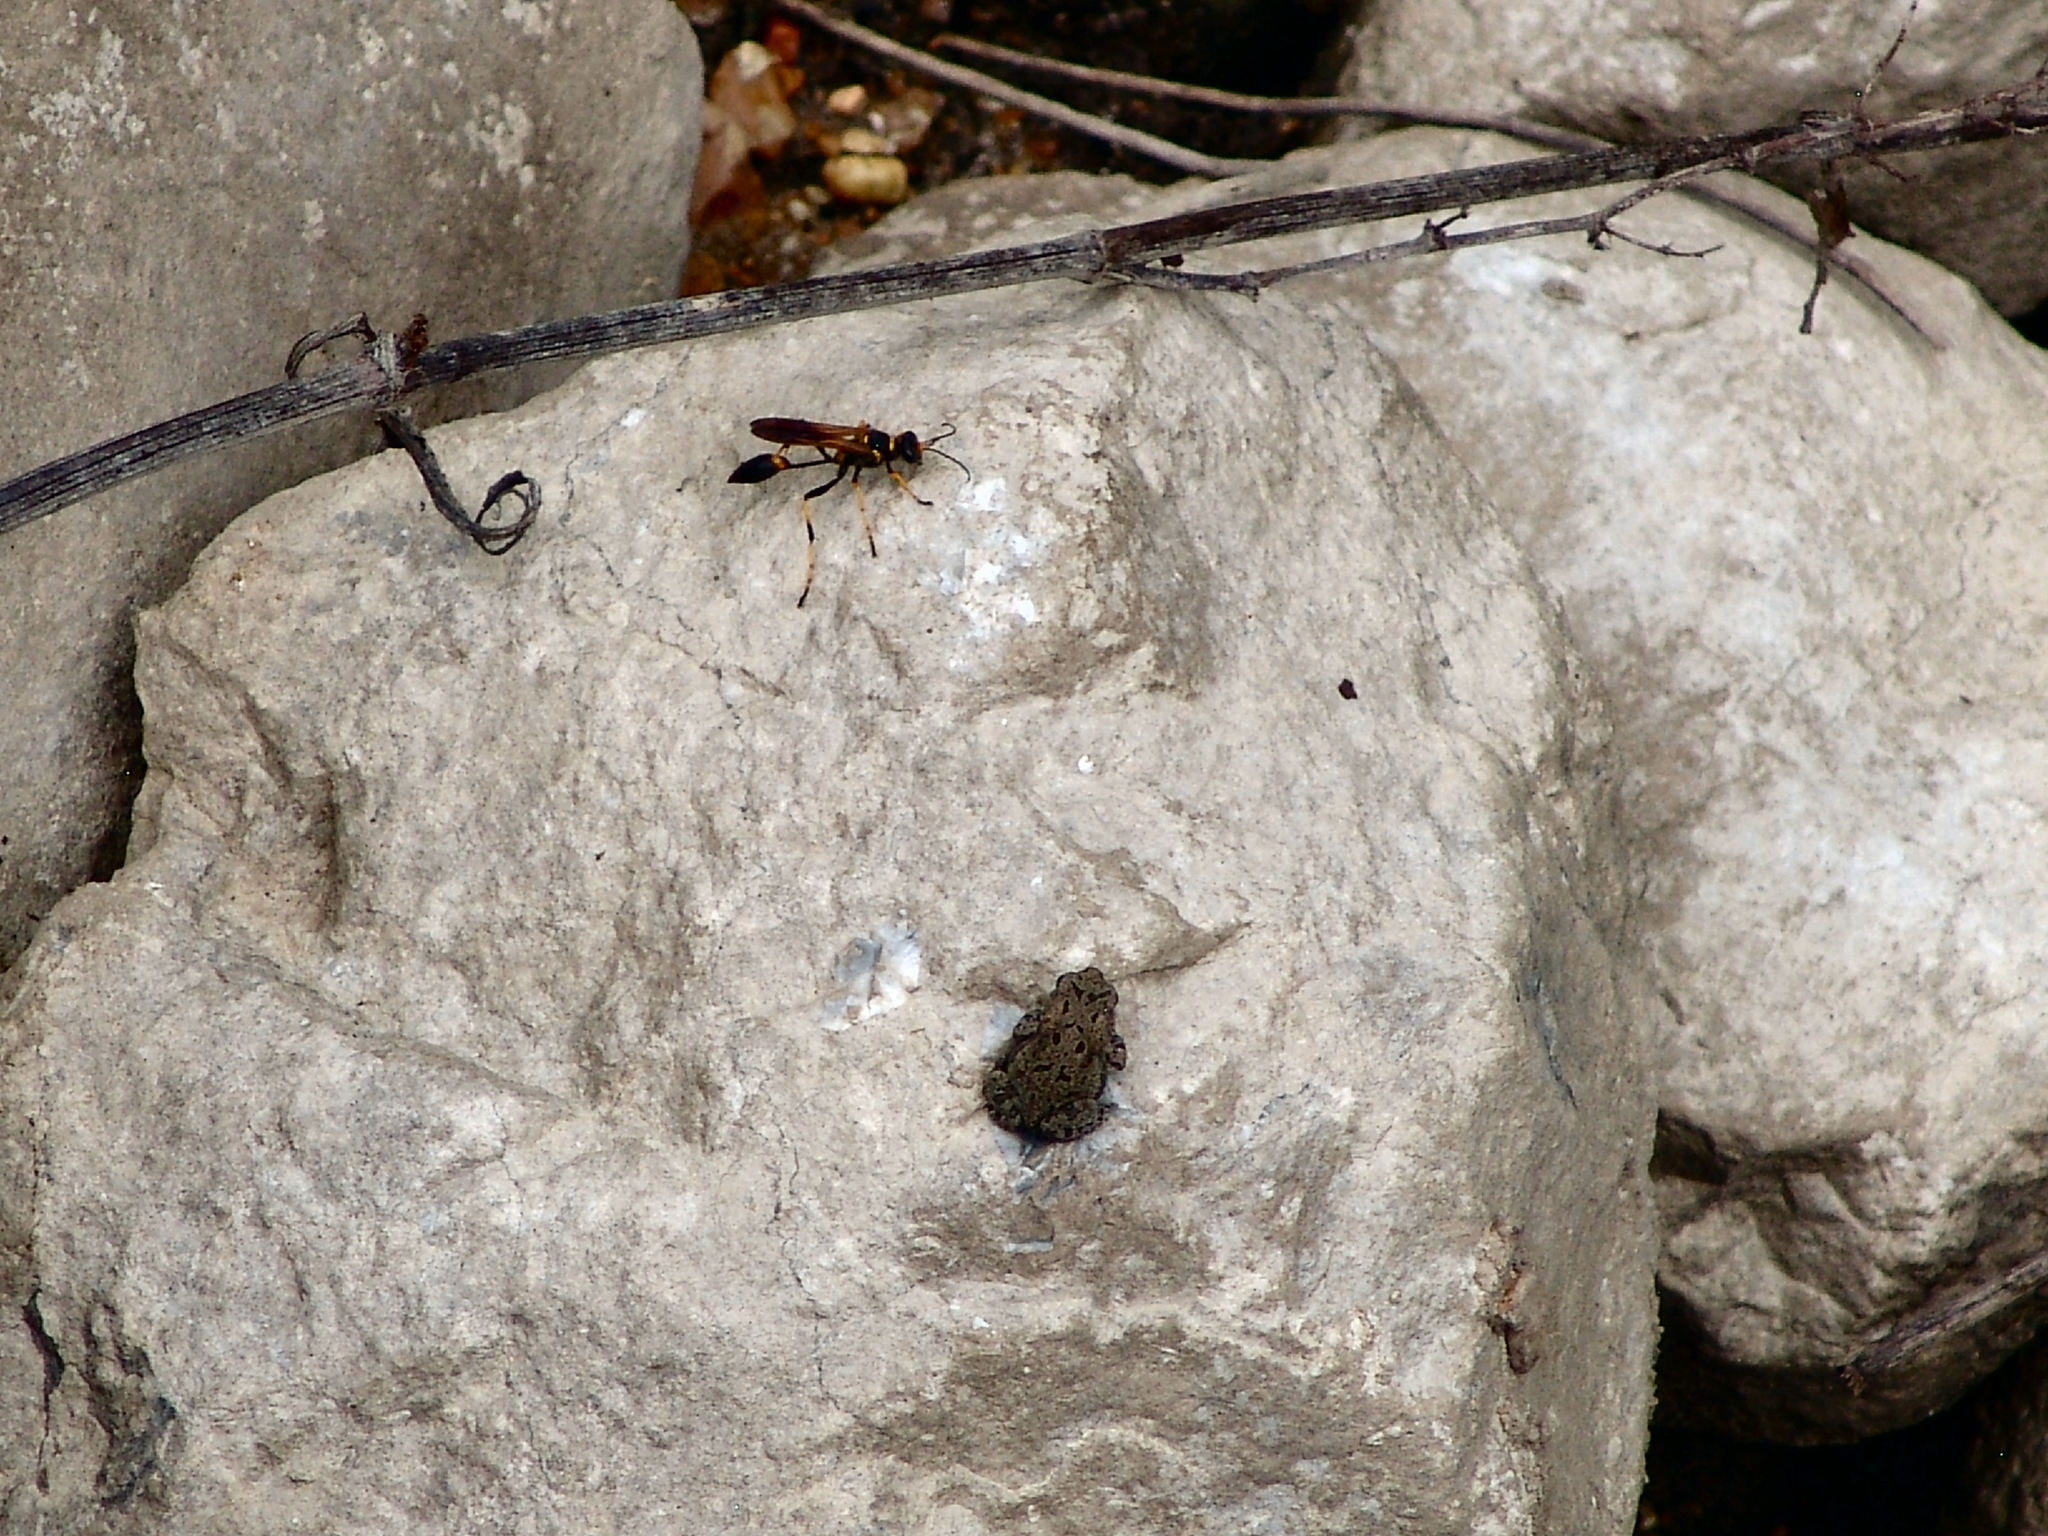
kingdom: Animalia
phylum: Arthropoda
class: Insecta
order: Hymenoptera
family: Sphecidae
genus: Sceliphron
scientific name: Sceliphron caementarium
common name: Mud dauber
